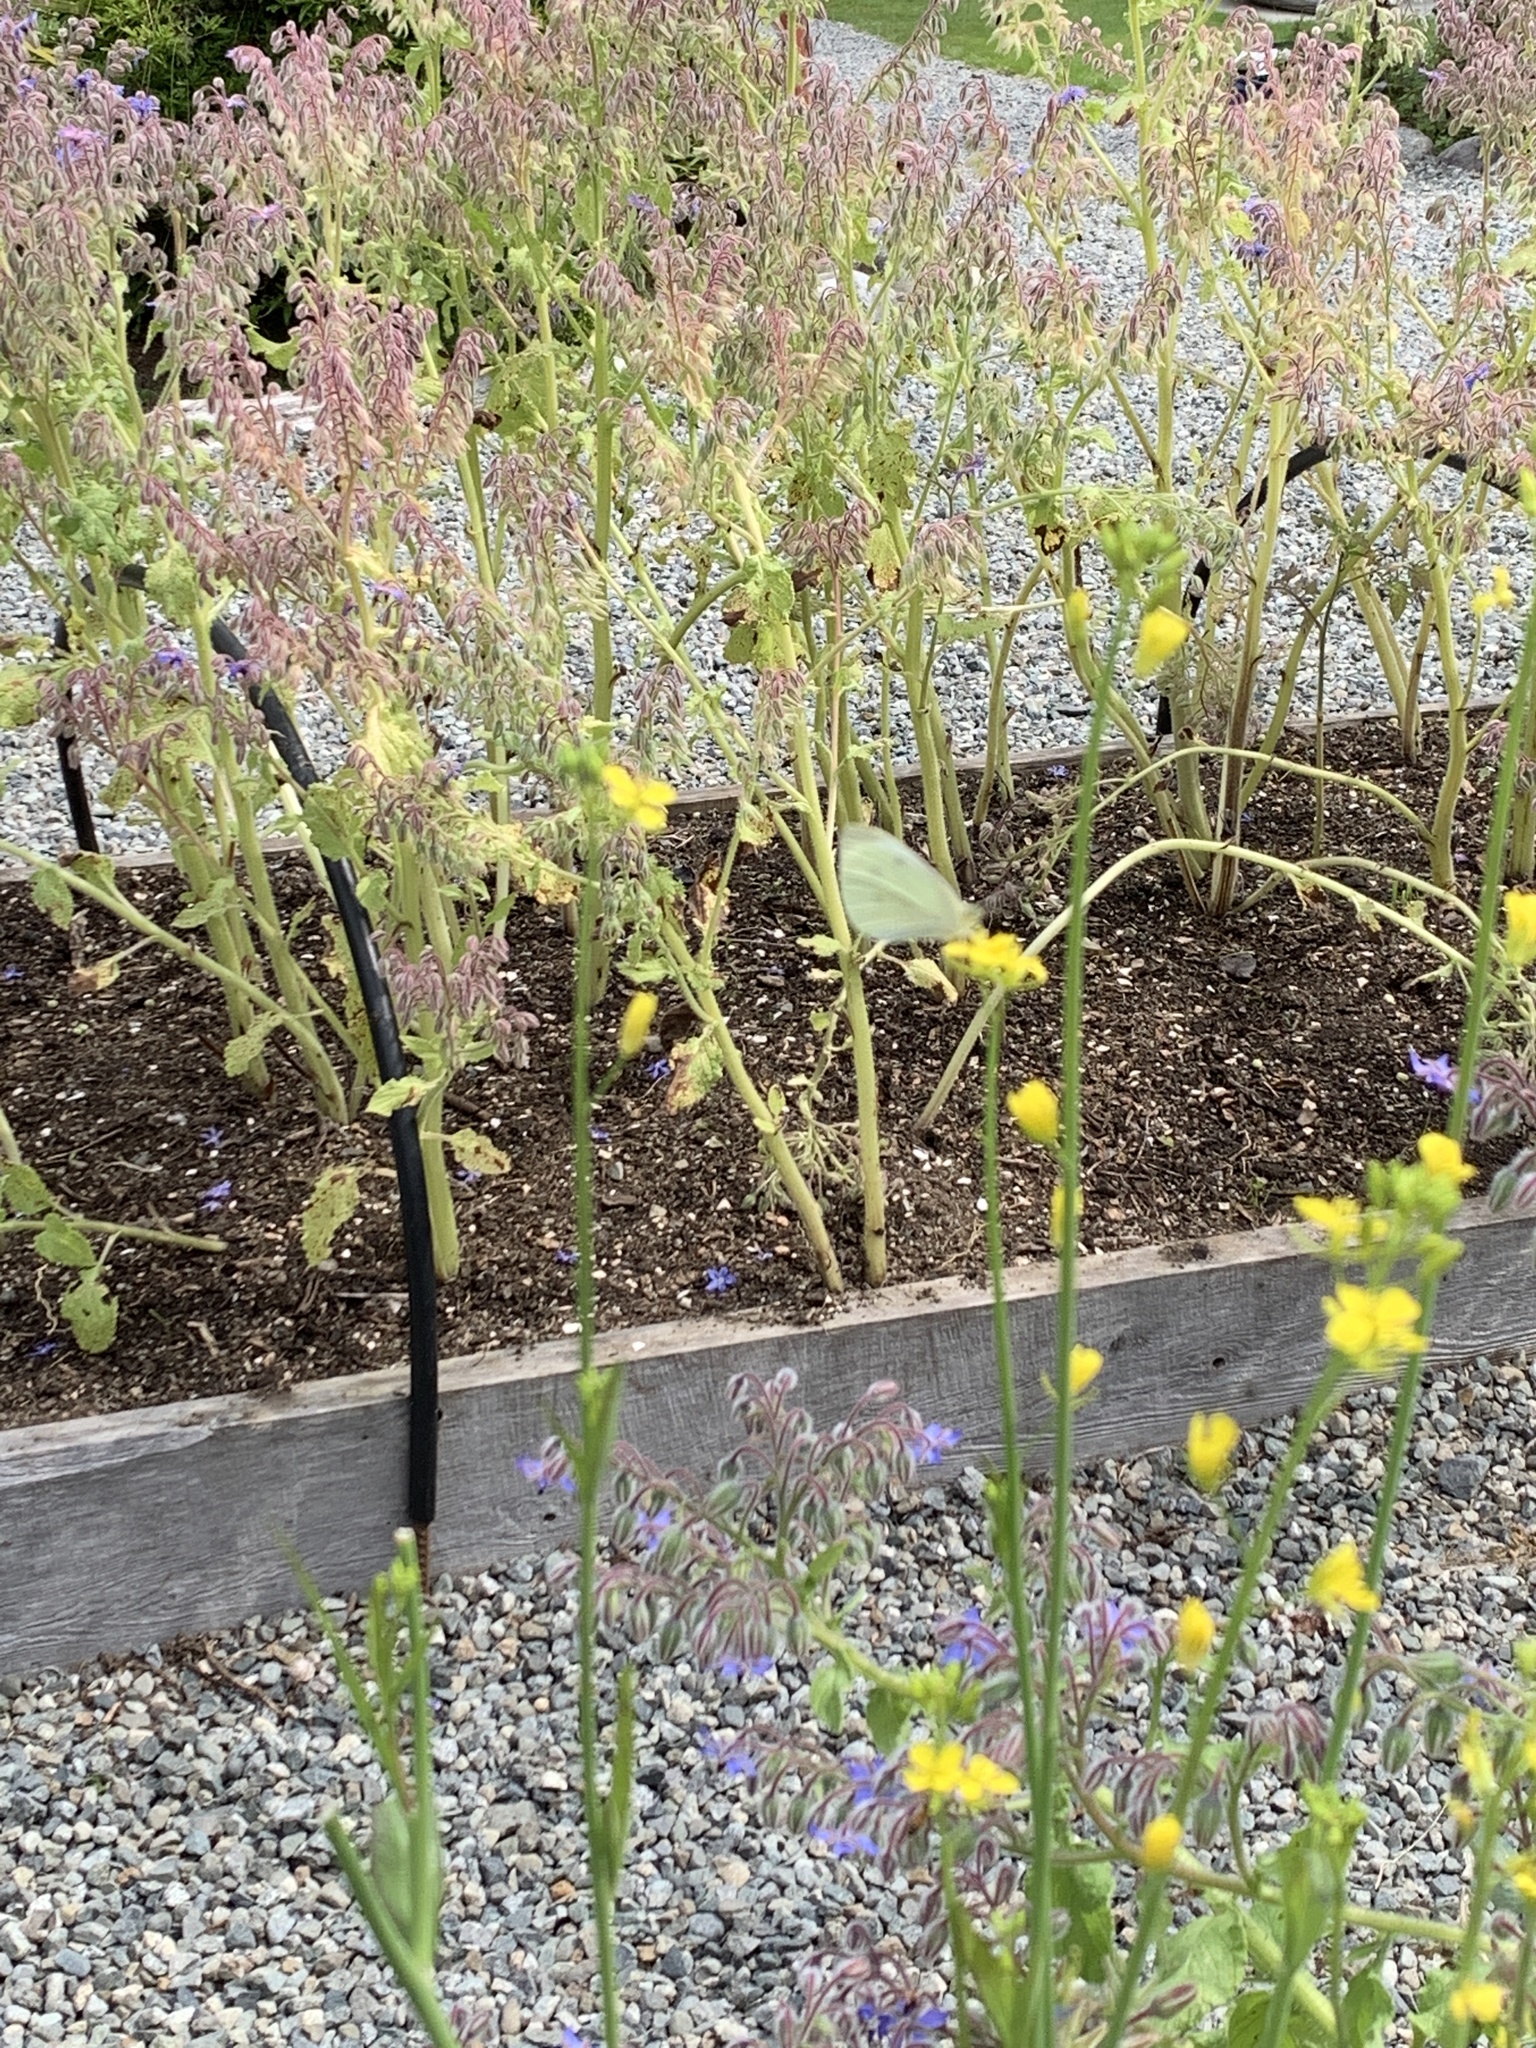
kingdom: Animalia
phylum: Arthropoda
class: Insecta
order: Lepidoptera
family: Pieridae
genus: Pieris
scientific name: Pieris rapae
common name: Small white
